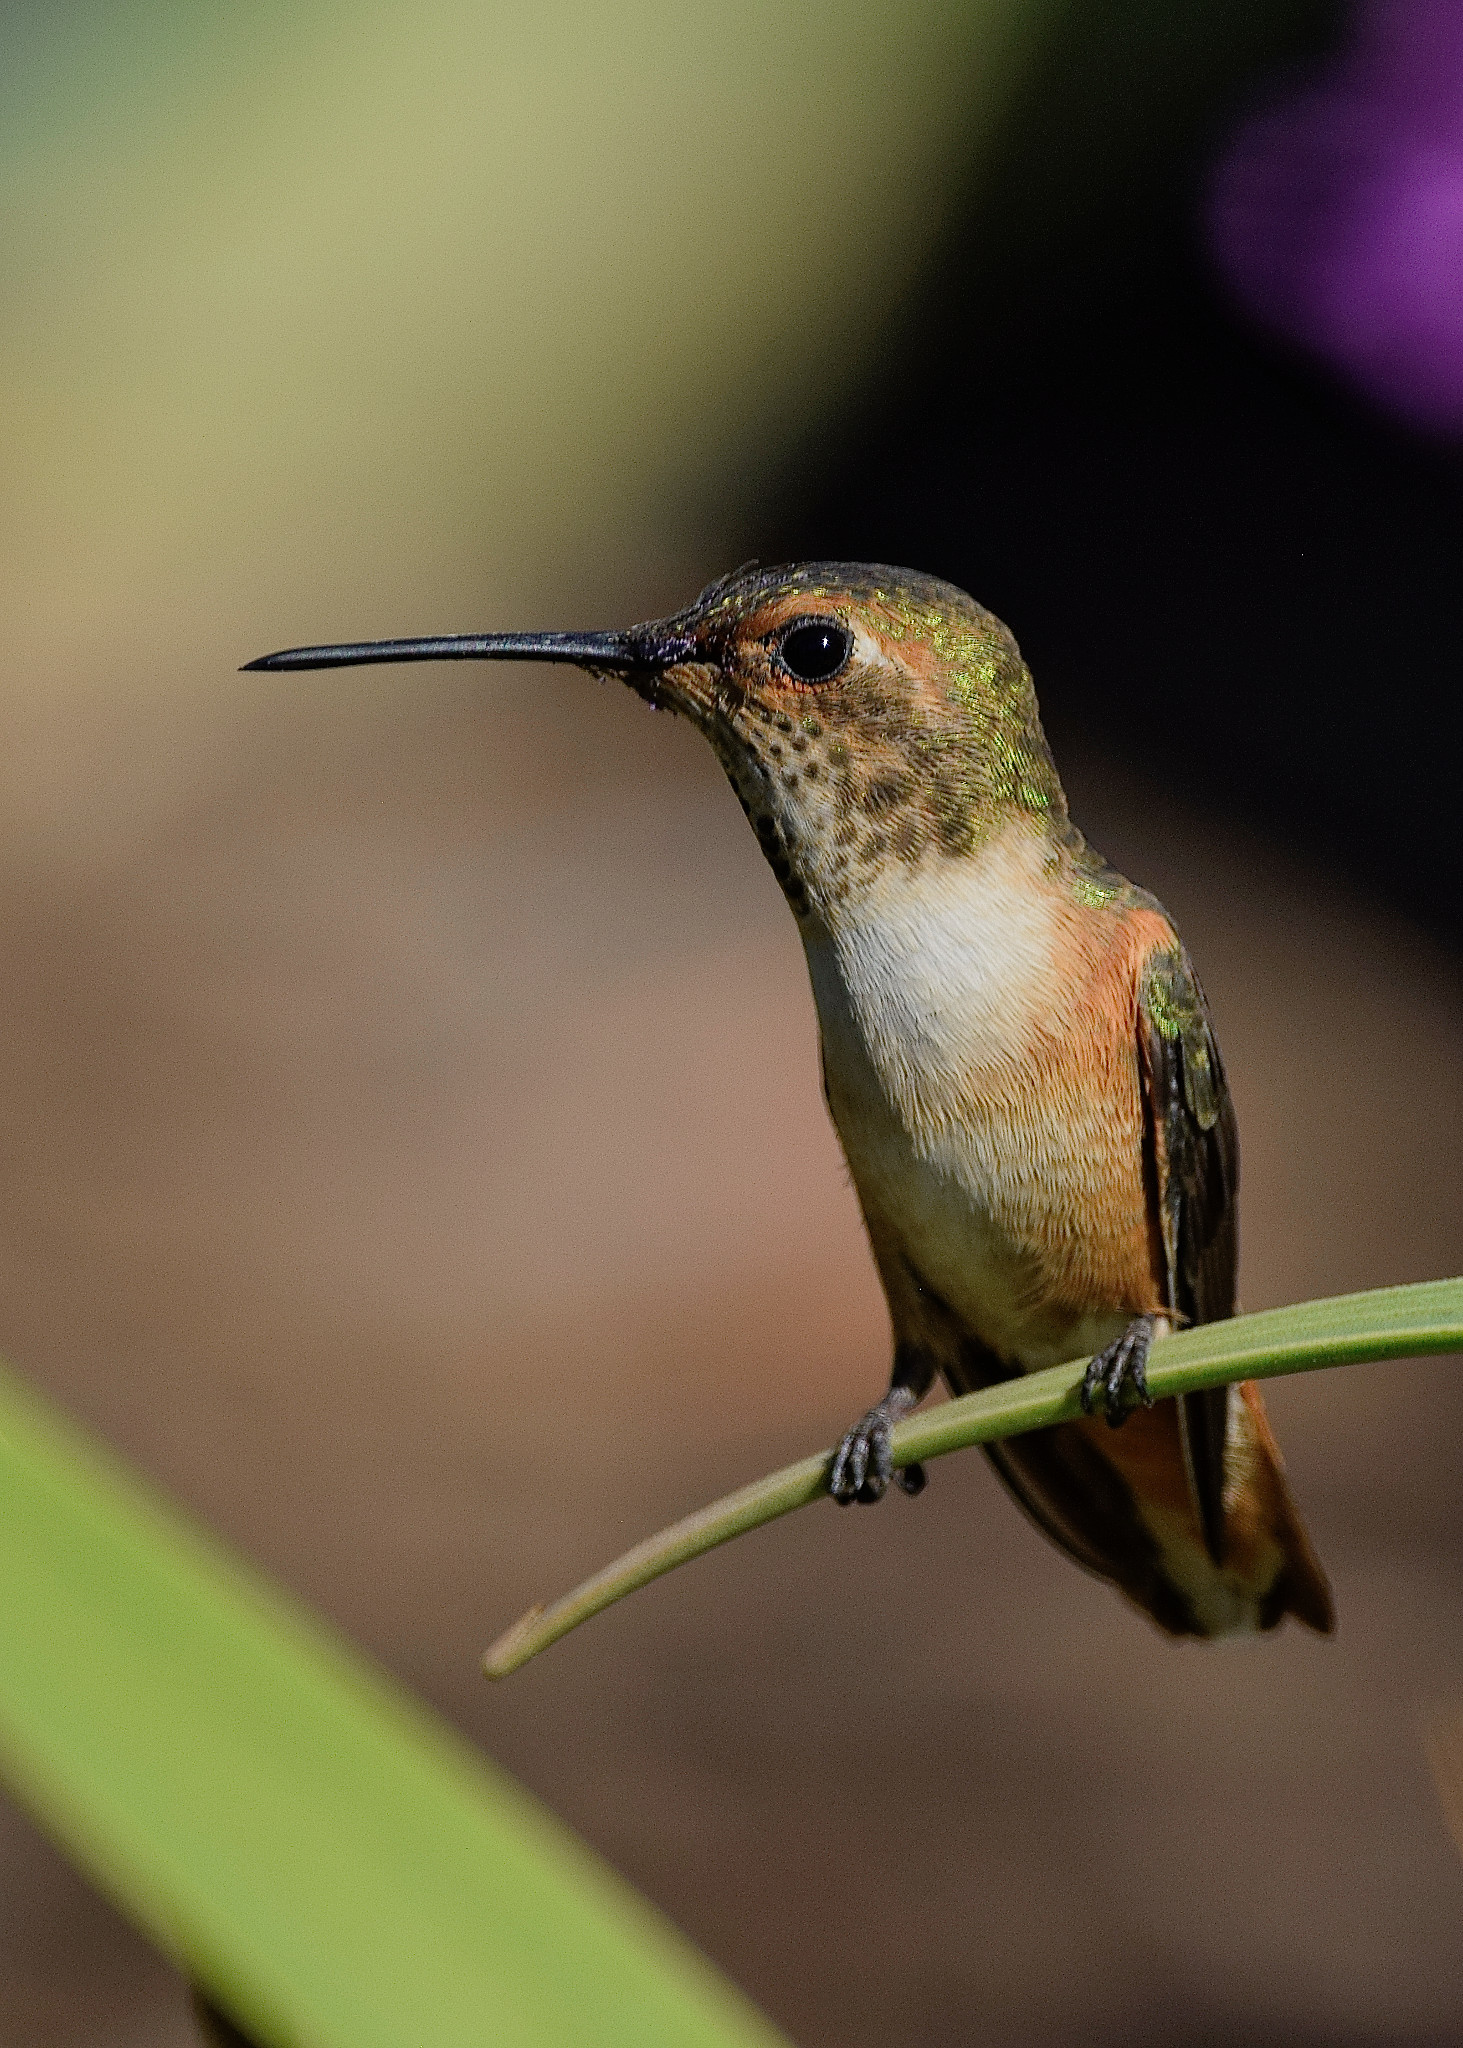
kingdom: Animalia
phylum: Chordata
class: Aves
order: Apodiformes
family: Trochilidae
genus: Selasphorus
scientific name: Selasphorus sasin
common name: Allen's hummingbird
